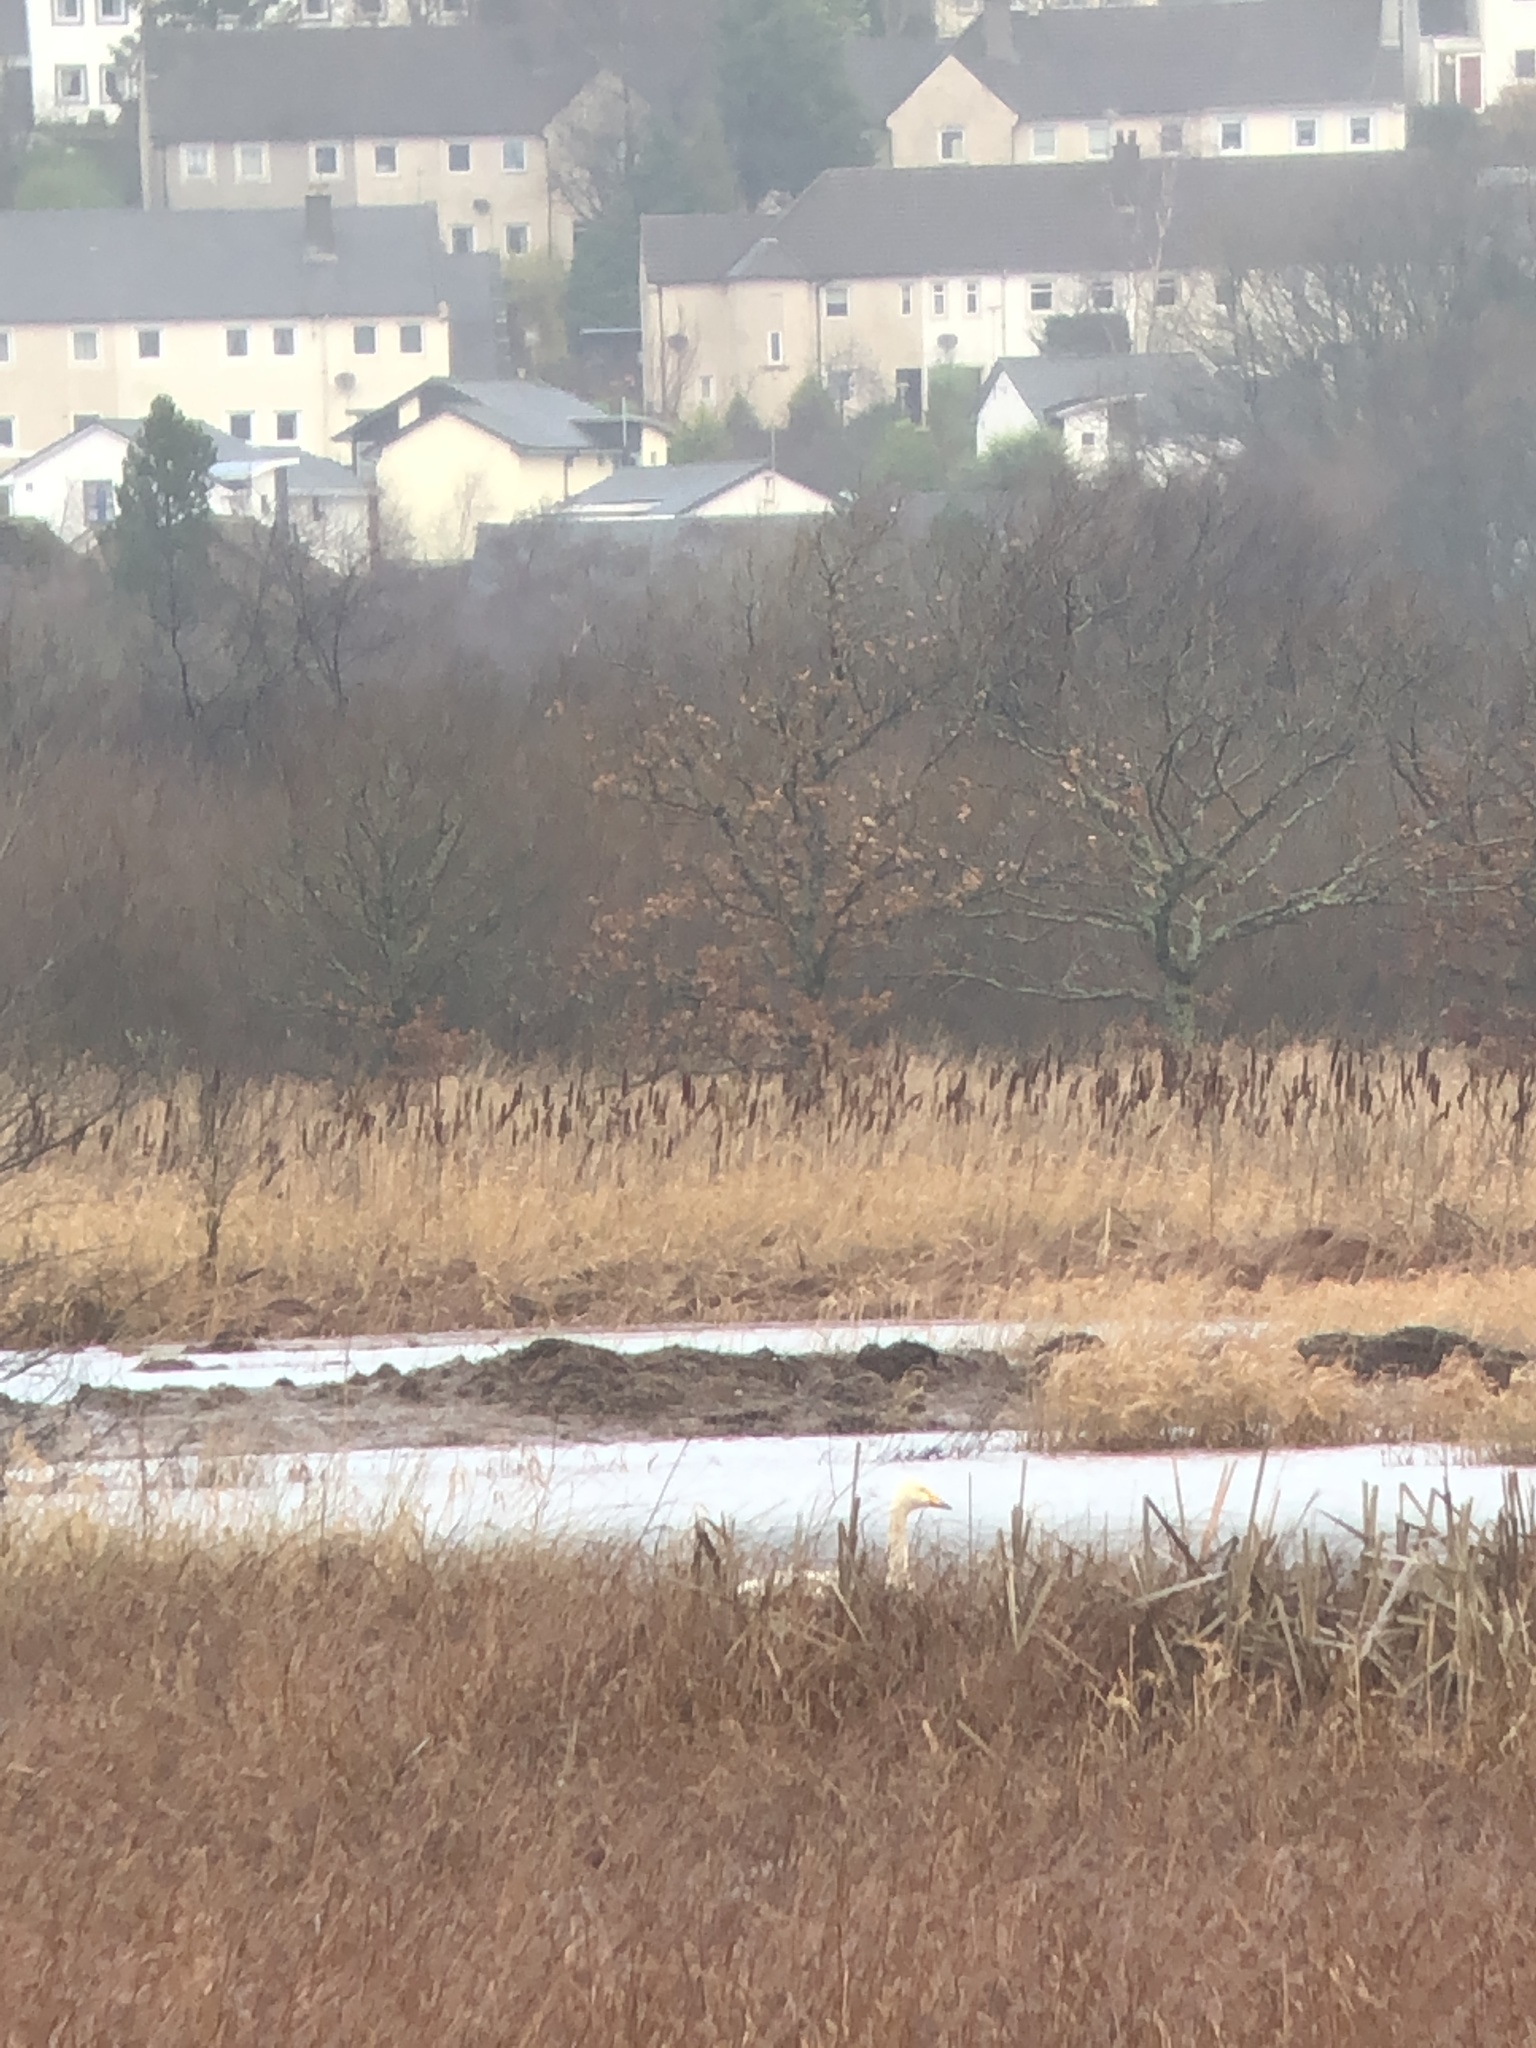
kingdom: Animalia
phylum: Chordata
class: Aves
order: Anseriformes
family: Anatidae
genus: Cygnus
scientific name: Cygnus cygnus
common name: Whooper swan
